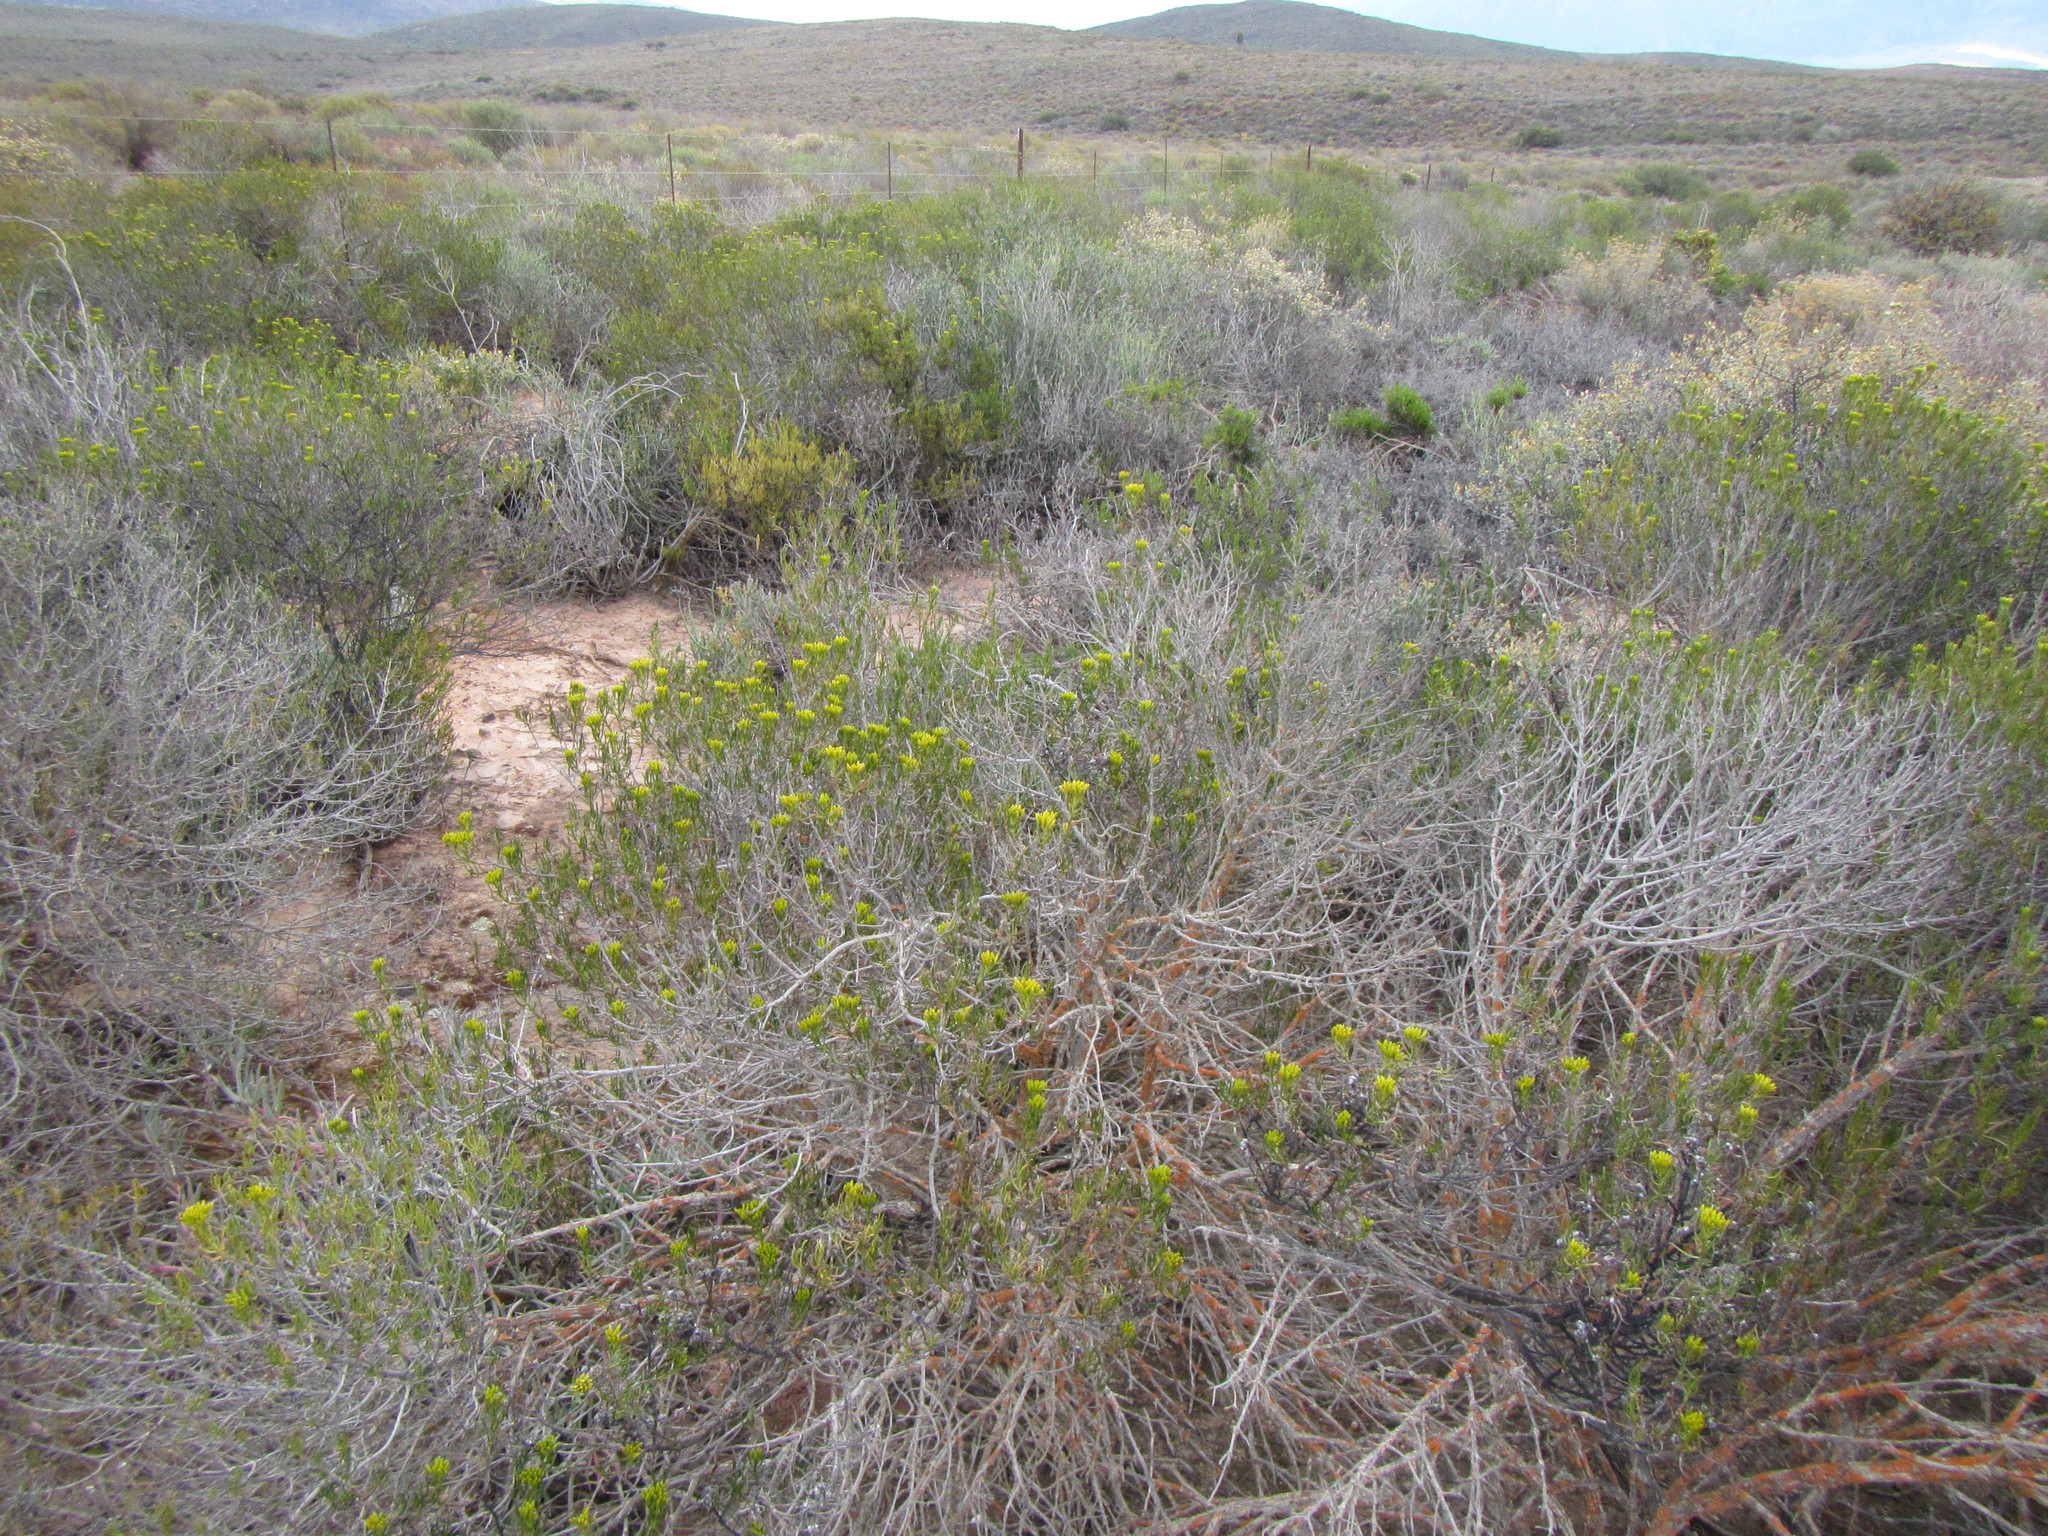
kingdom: Plantae
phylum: Tracheophyta
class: Magnoliopsida
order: Asterales
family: Asteraceae
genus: Pteronia
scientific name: Pteronia paniculata
